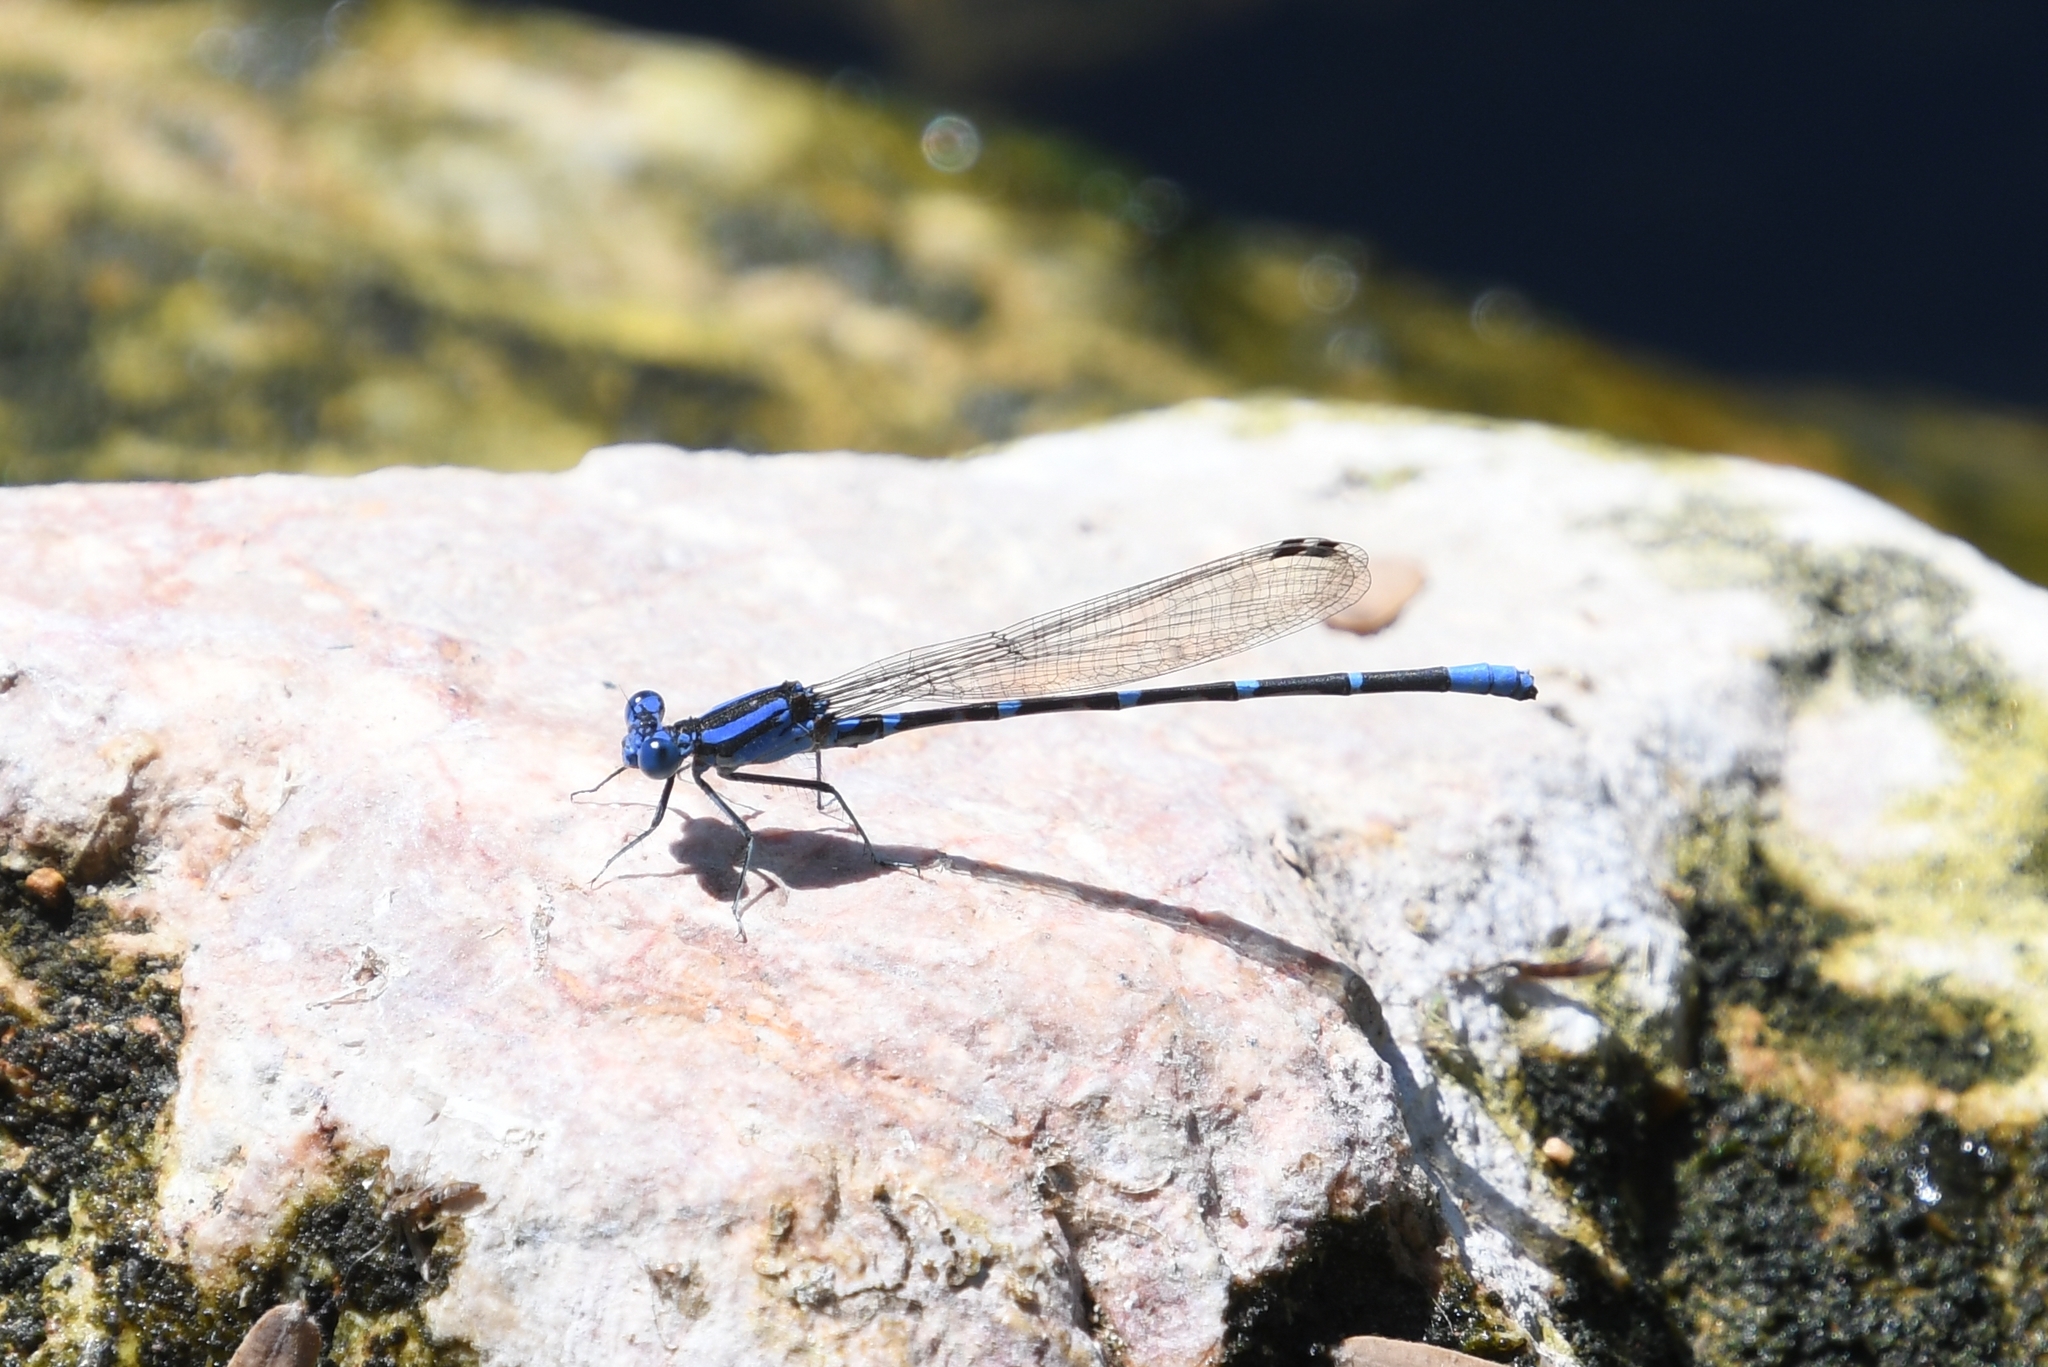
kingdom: Animalia
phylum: Arthropoda
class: Insecta
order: Odonata
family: Coenagrionidae
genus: Argia
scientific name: Argia sedula
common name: Blue-ringed dancer
